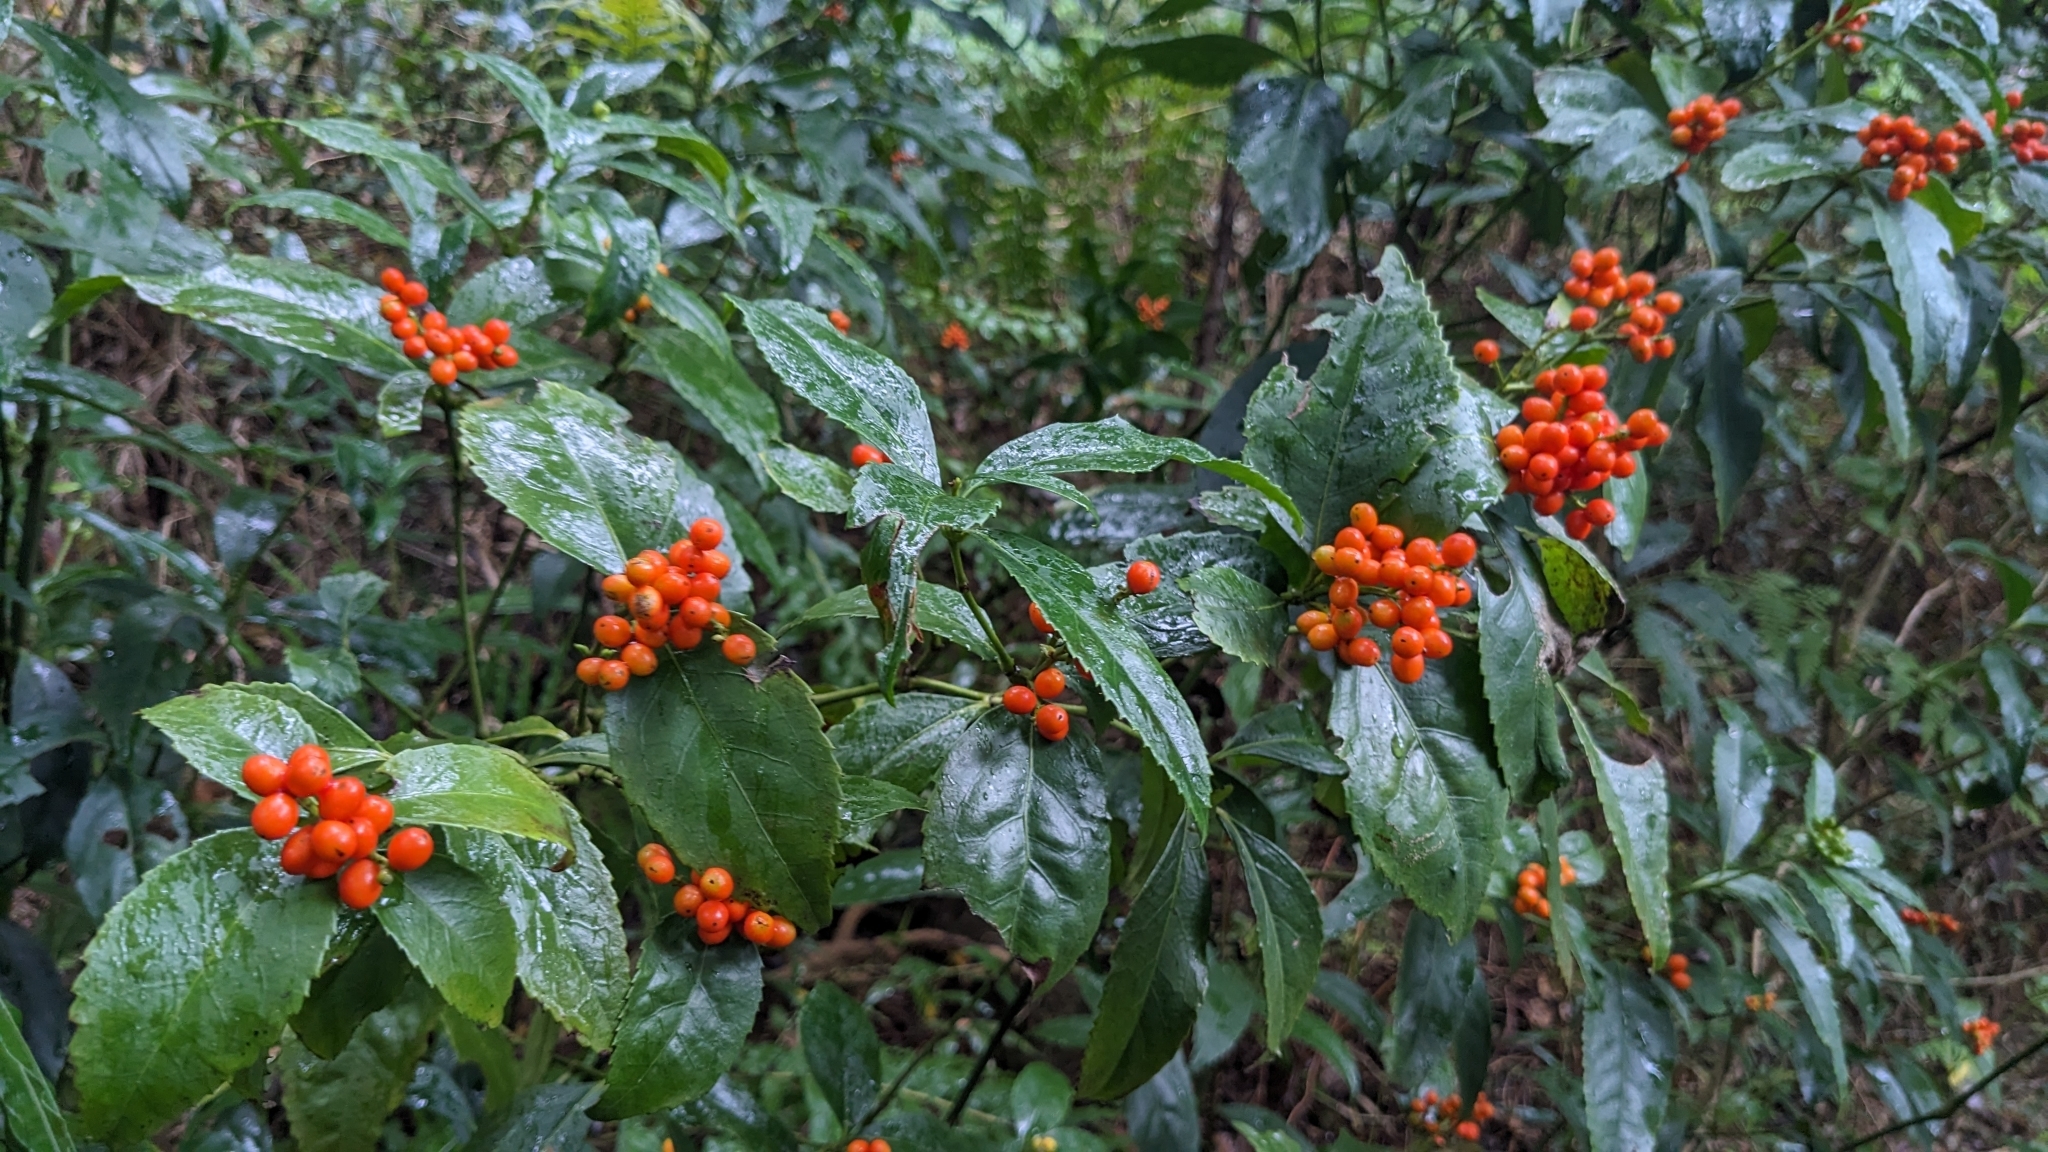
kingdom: Plantae
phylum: Tracheophyta
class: Magnoliopsida
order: Chloranthales
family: Chloranthaceae
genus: Sarcandra
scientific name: Sarcandra glabra
